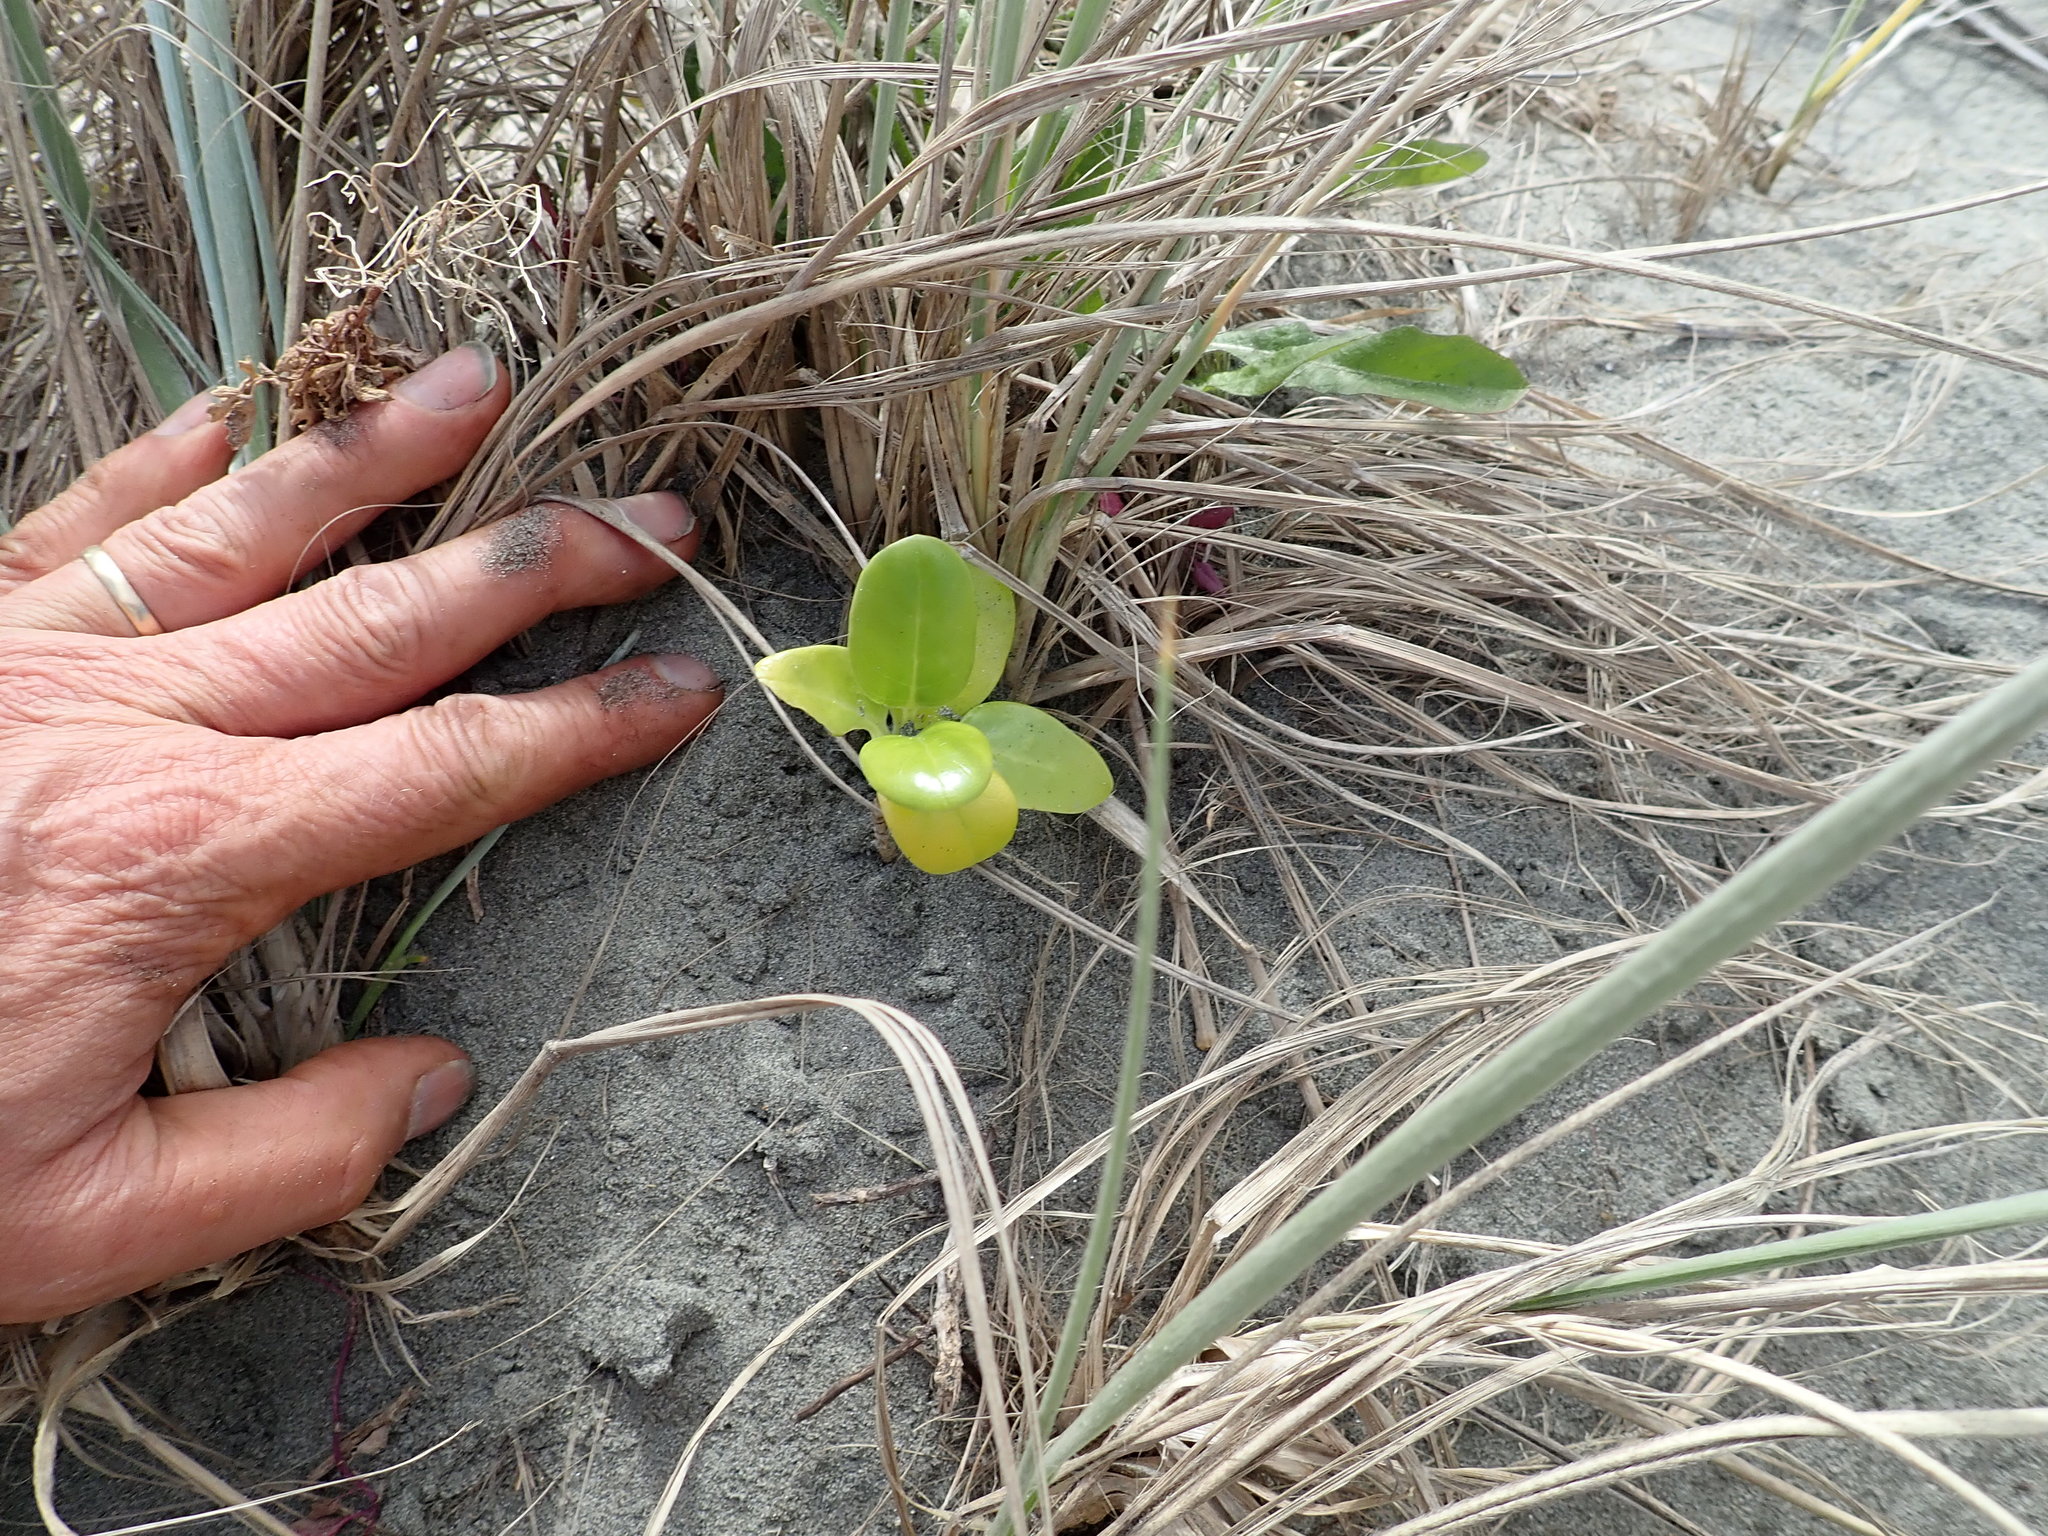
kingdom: Plantae
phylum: Tracheophyta
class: Magnoliopsida
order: Gentianales
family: Rubiaceae
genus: Coprosma
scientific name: Coprosma repens
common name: Tree bedstraw
